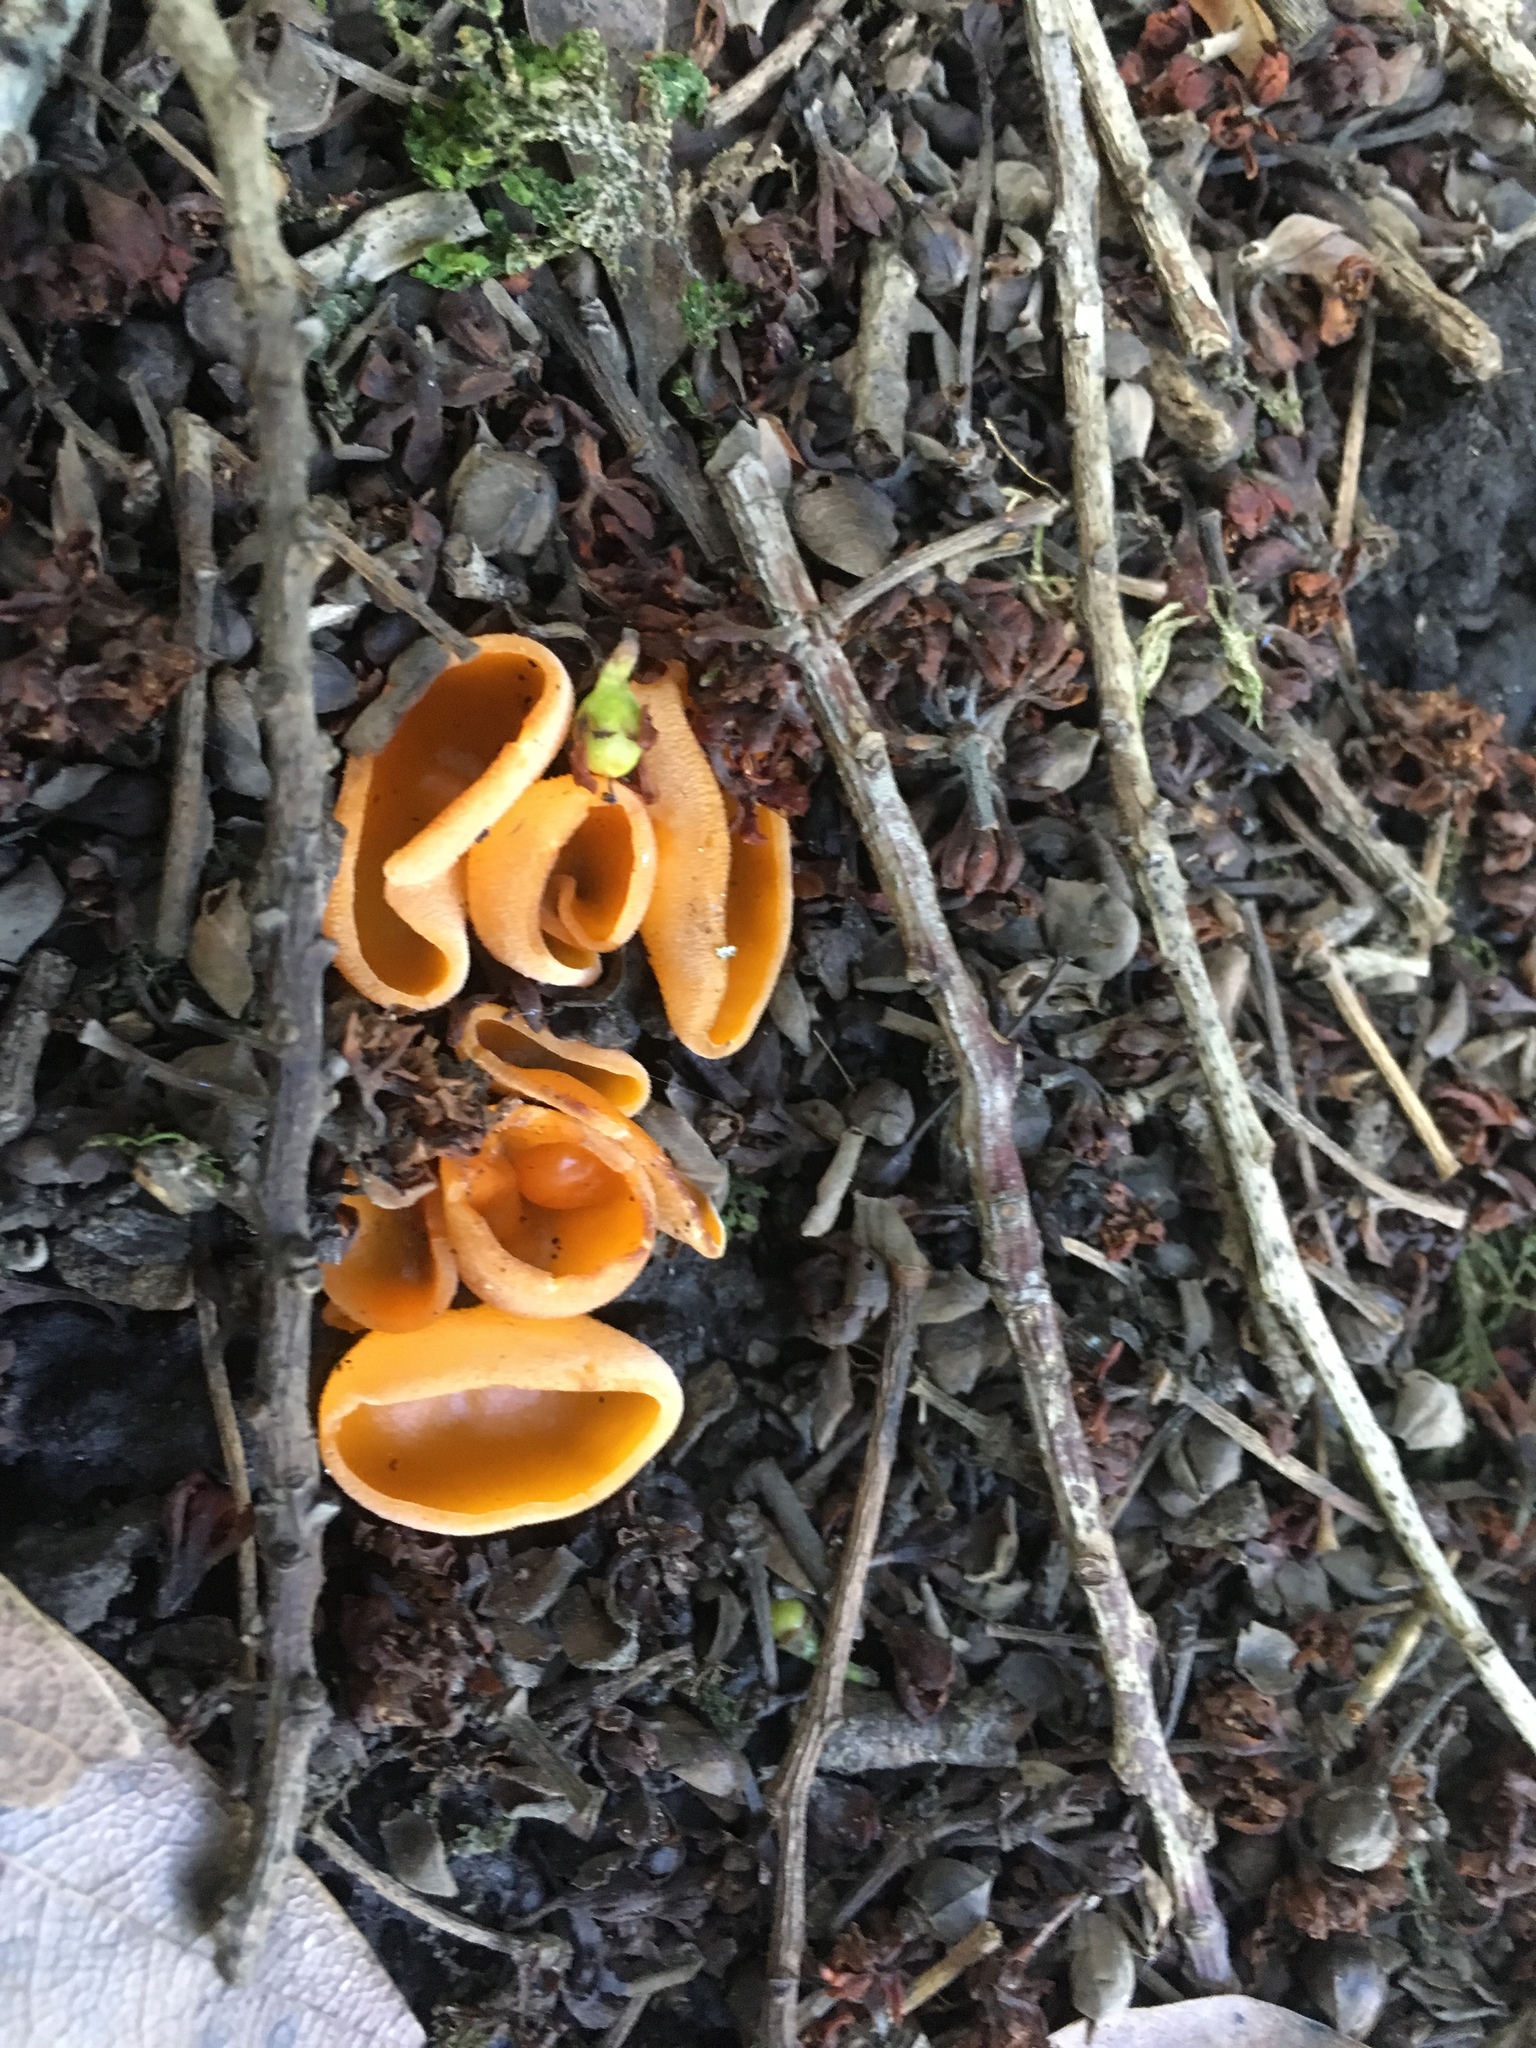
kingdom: Fungi
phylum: Ascomycota
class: Pezizomycetes
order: Pezizales
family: Pyronemataceae
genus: Aleuria
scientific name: Aleuria aurantia
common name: Orange peel fungus
